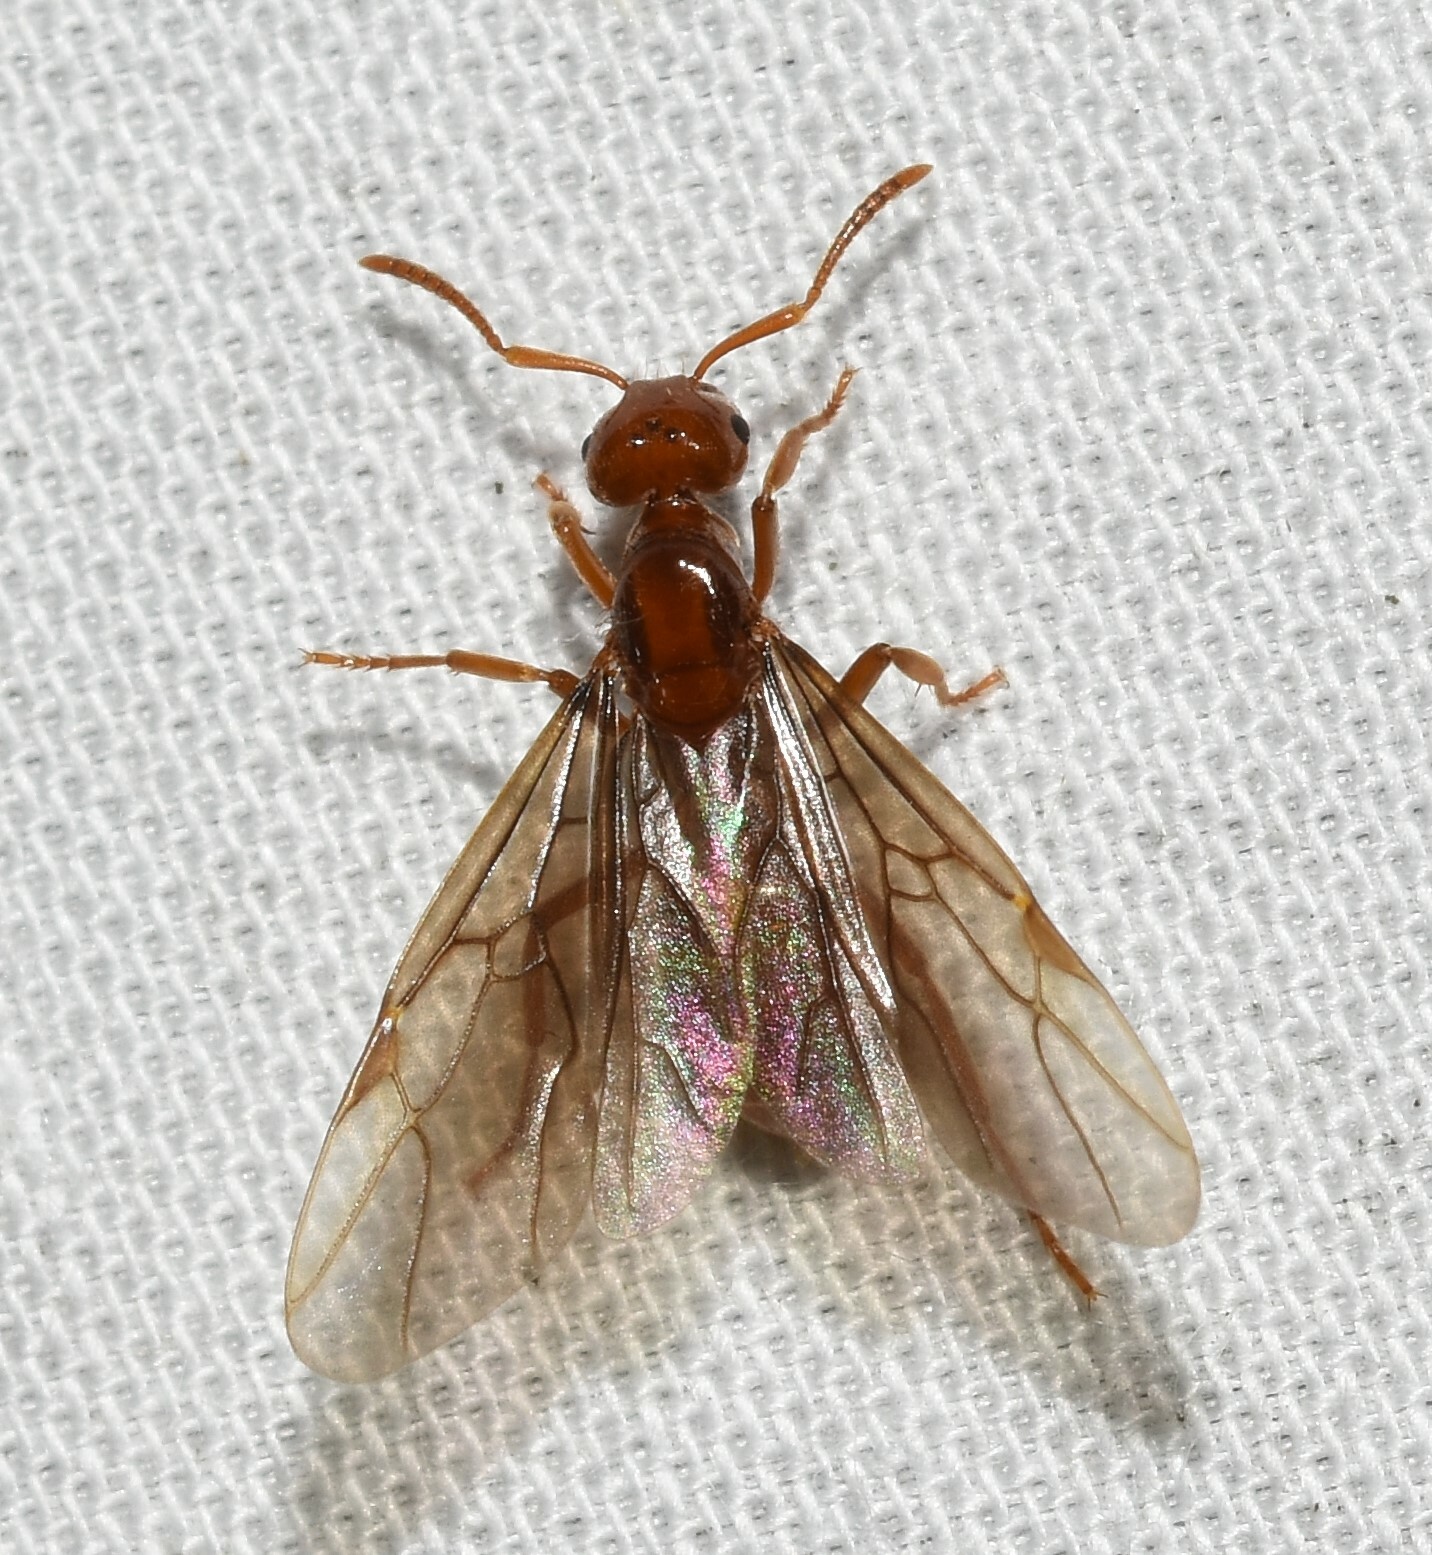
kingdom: Animalia
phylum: Arthropoda
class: Insecta
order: Hymenoptera
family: Formicidae
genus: Acanthomyops
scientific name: Acanthomyops interjectus
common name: Larger yellow ant
